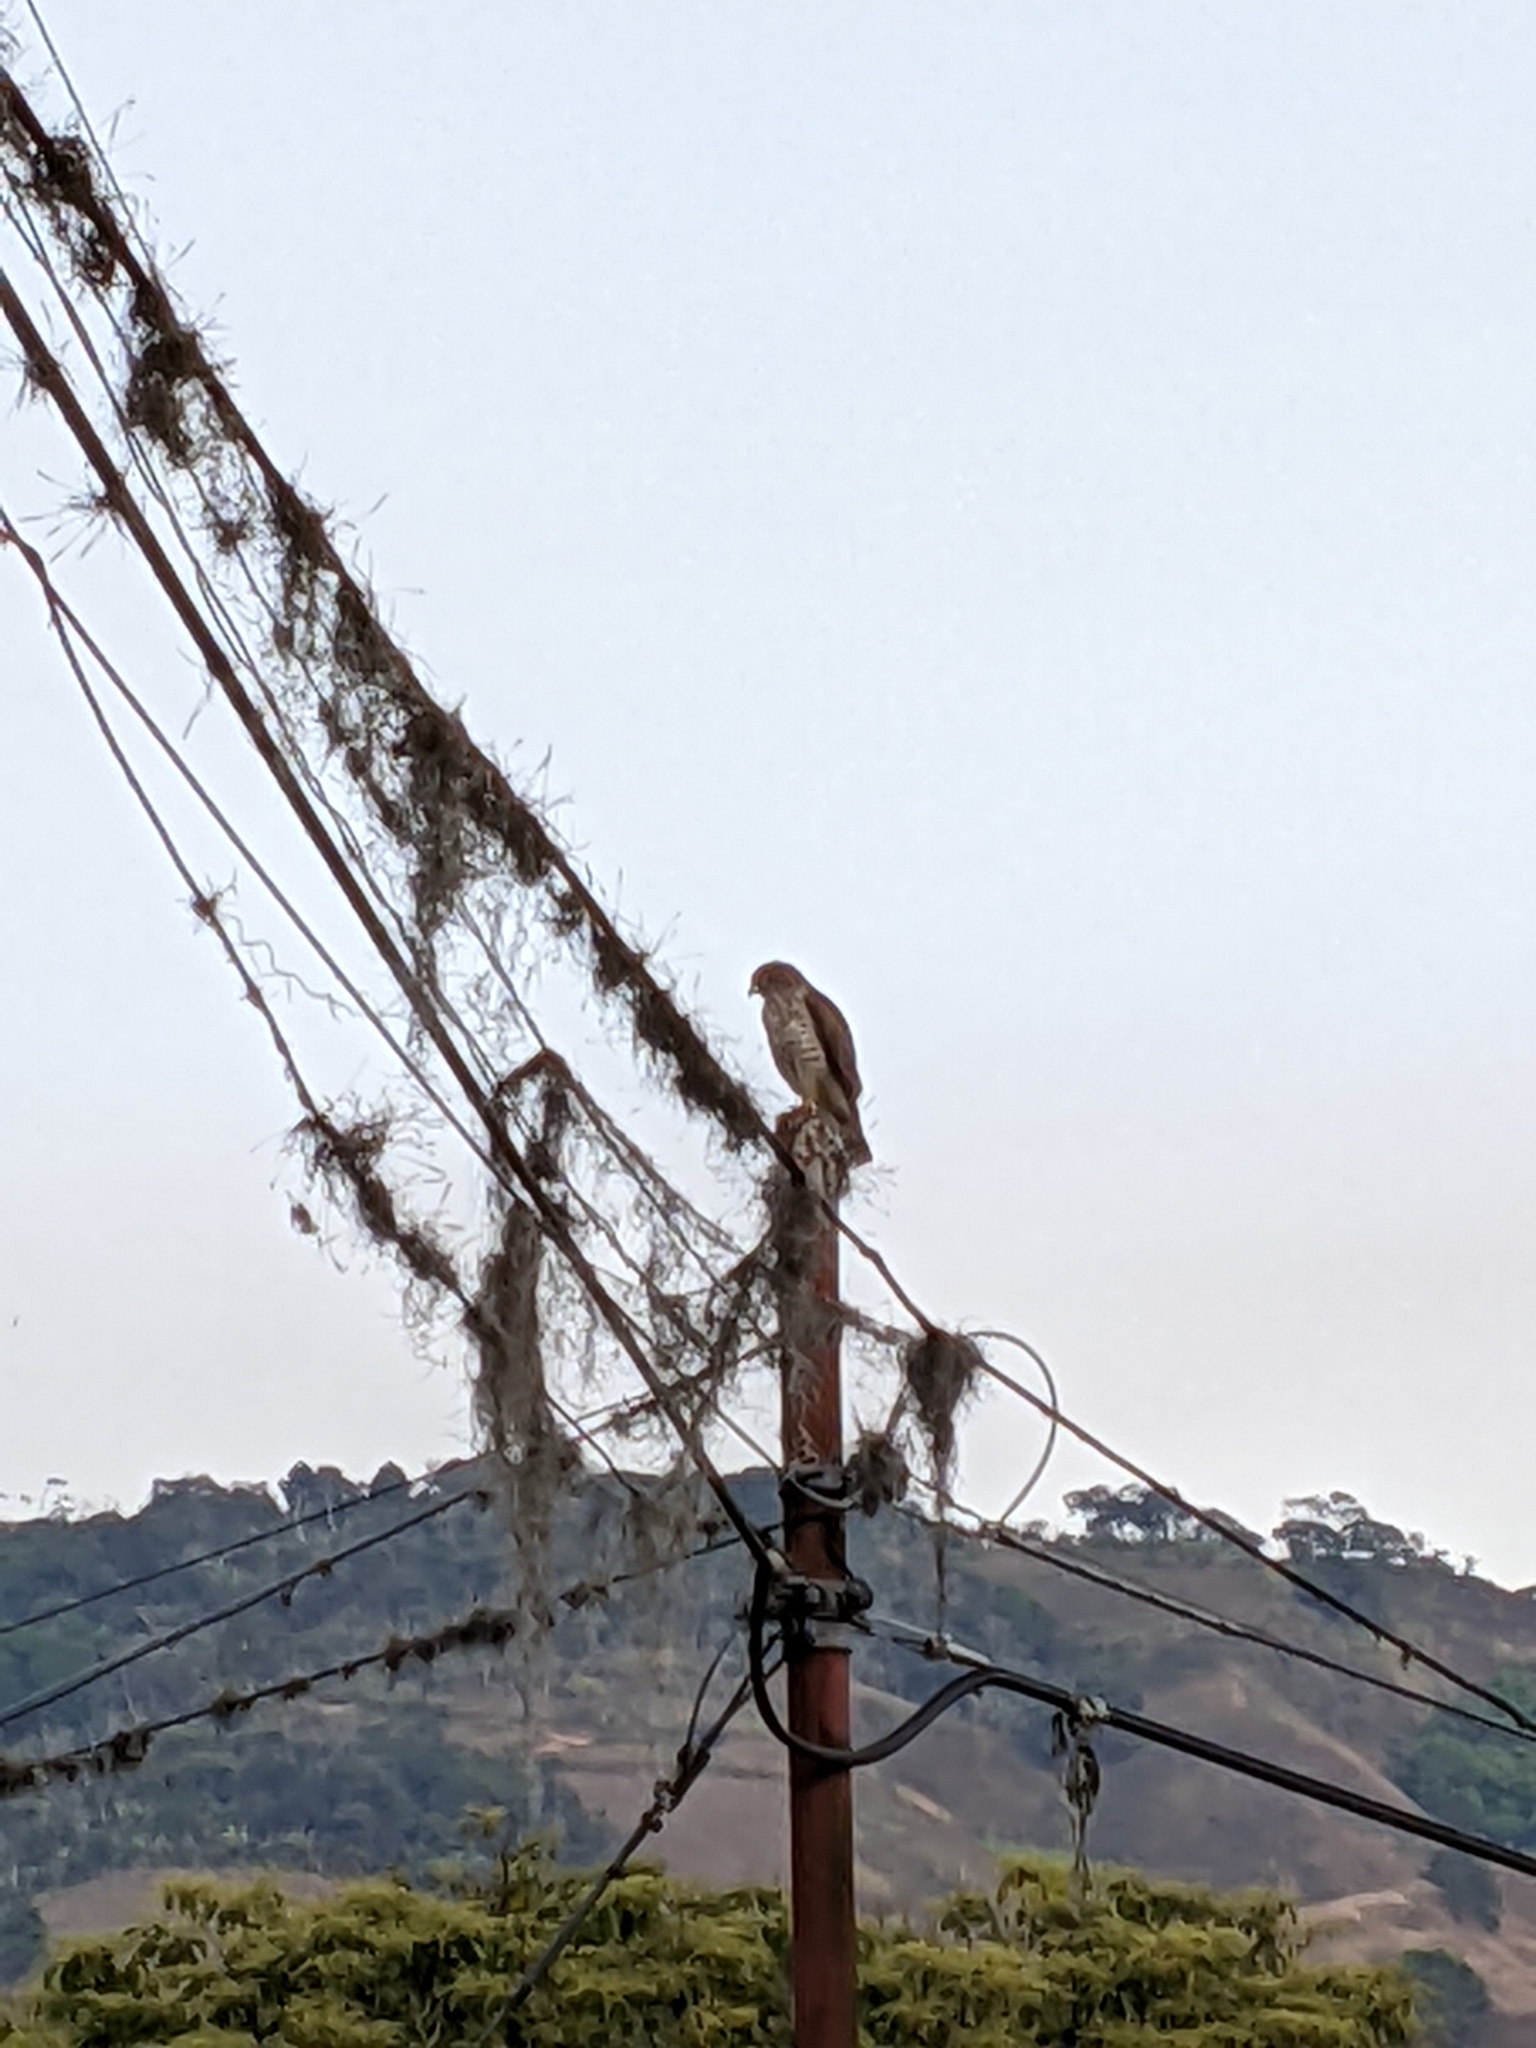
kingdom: Animalia
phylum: Chordata
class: Aves
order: Accipitriformes
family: Accipitridae
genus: Buteo
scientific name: Buteo platypterus
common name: Broad-winged hawk
